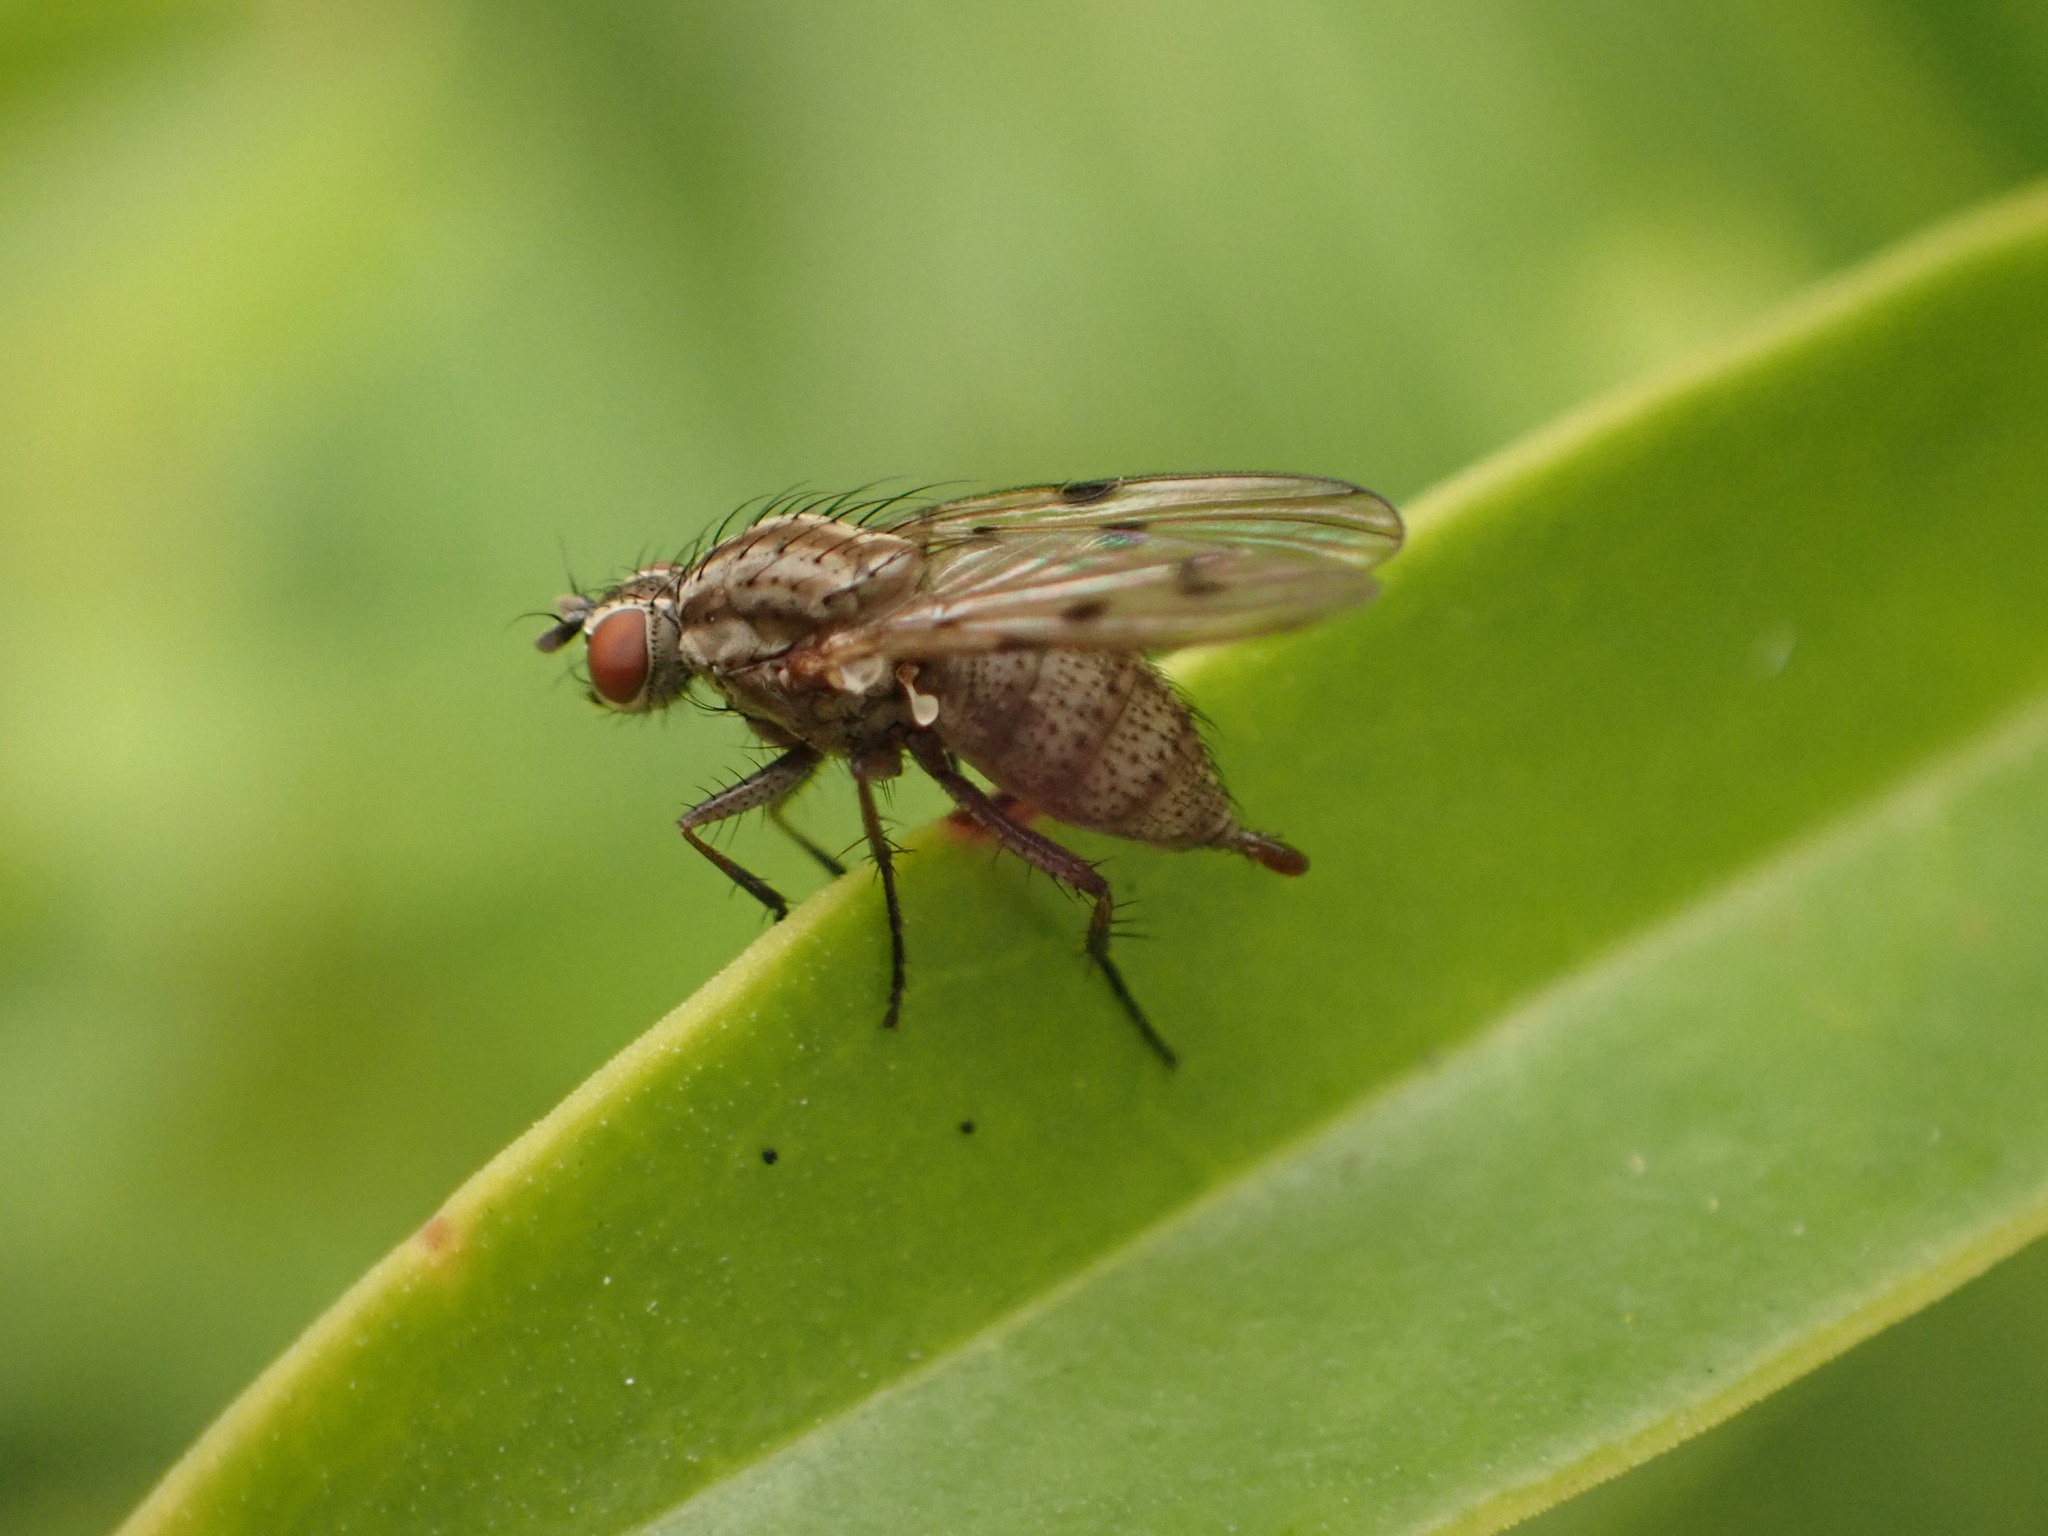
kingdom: Animalia
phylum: Arthropoda
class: Insecta
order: Diptera
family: Anthomyiidae
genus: Anthomyia
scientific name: Anthomyia punctipennis
